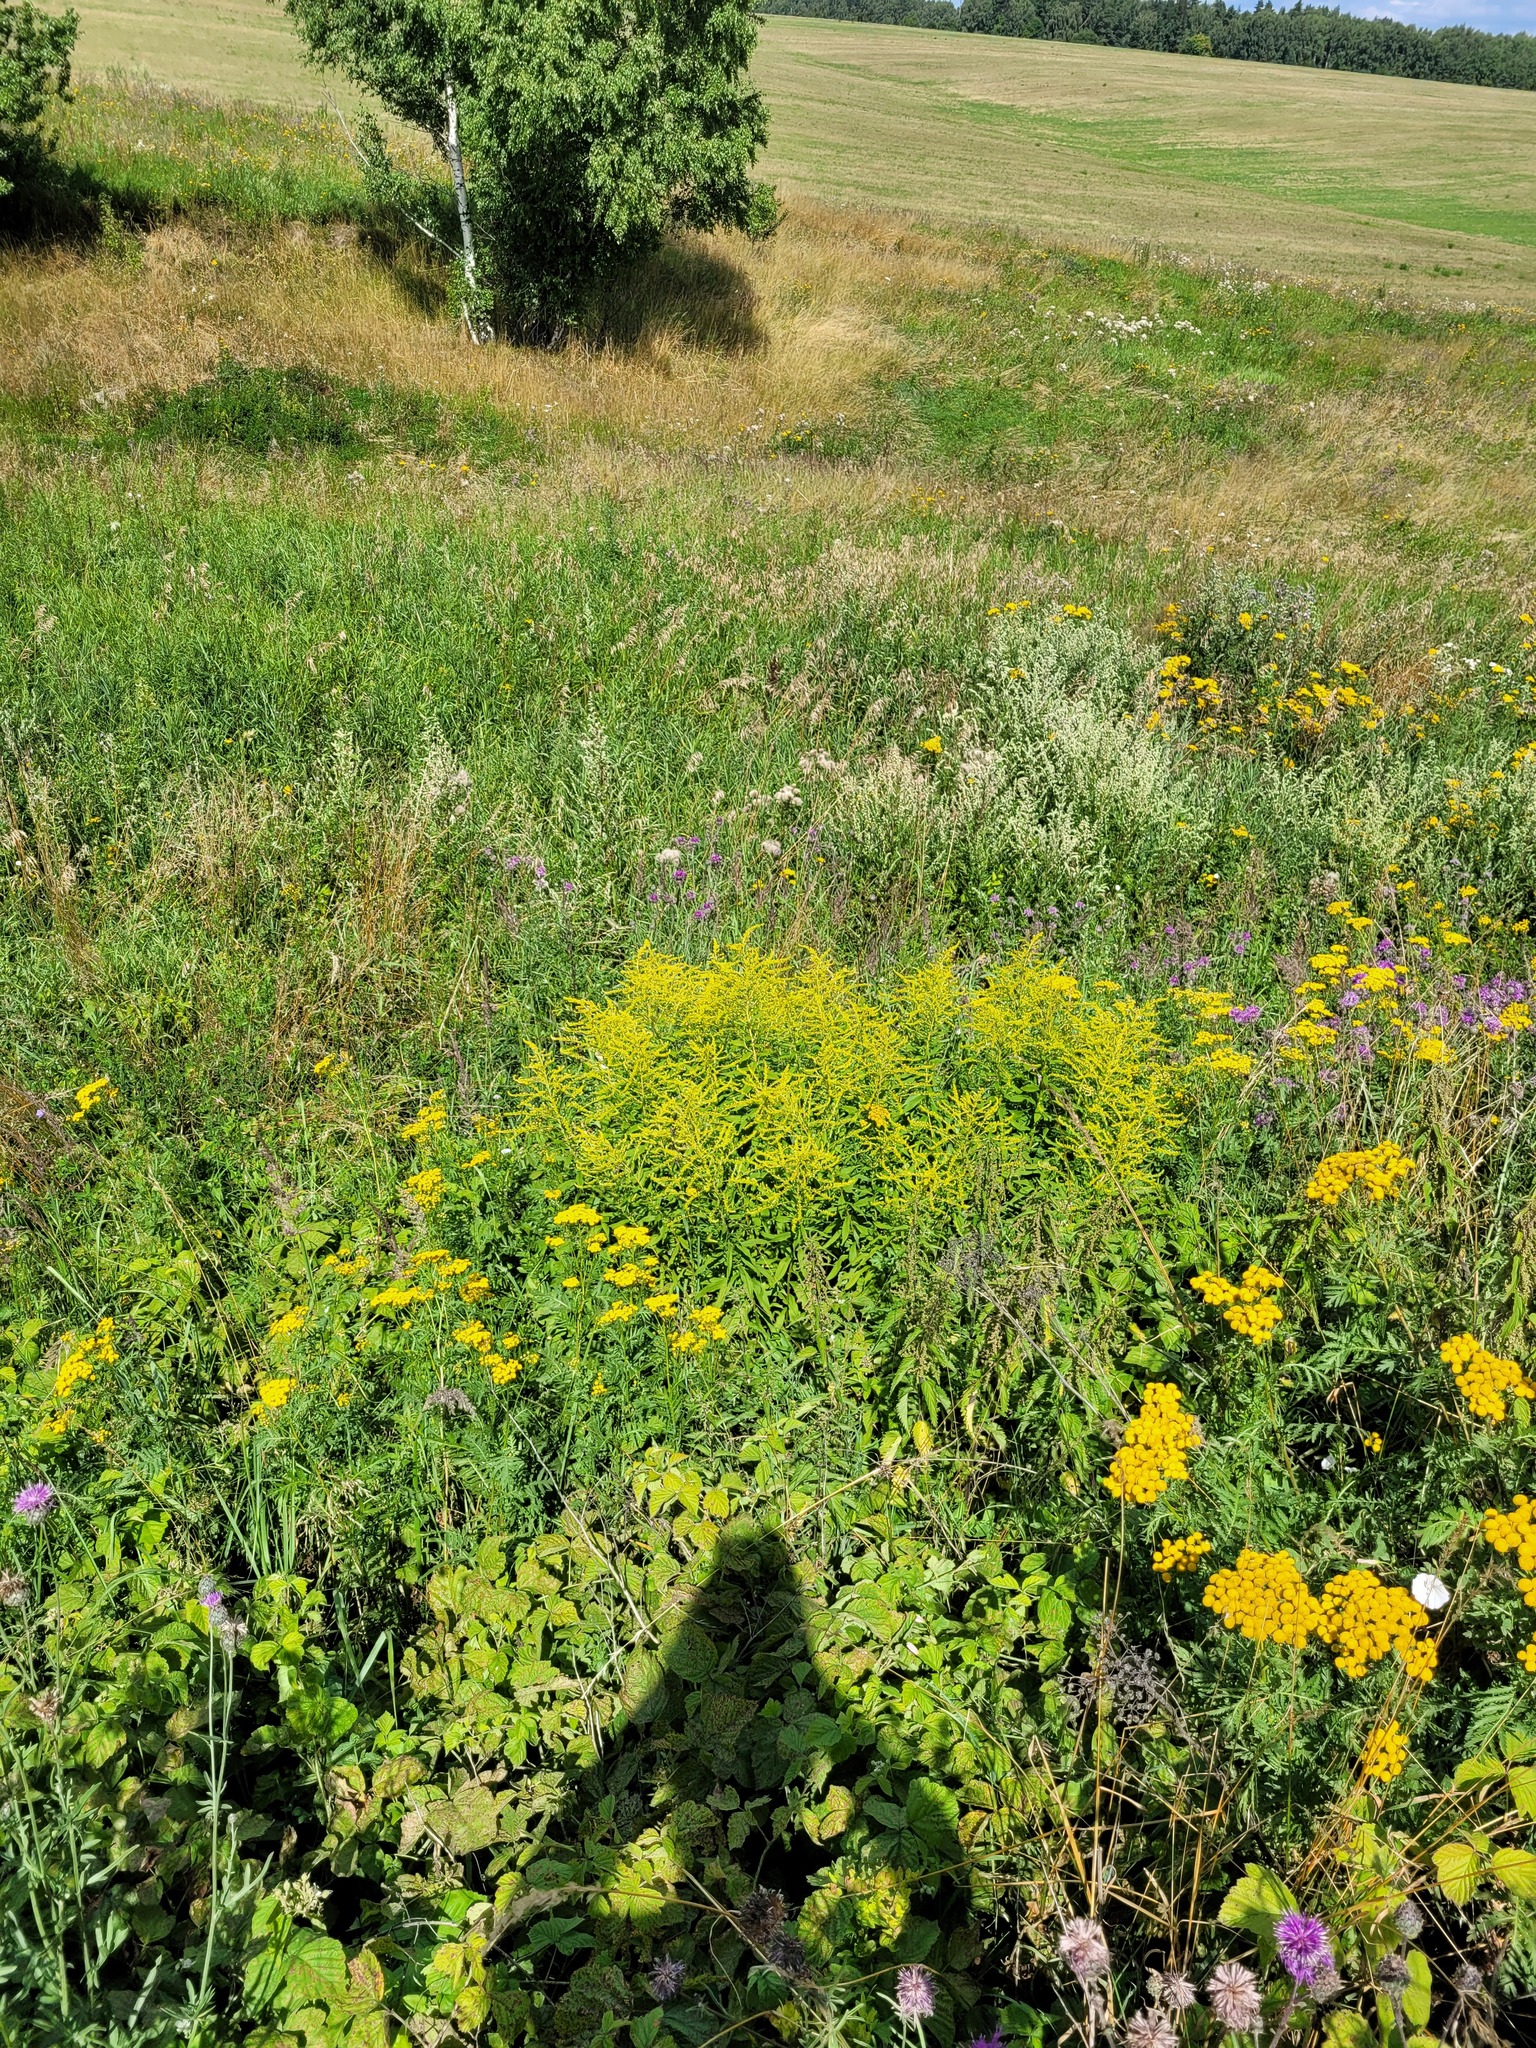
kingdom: Plantae
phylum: Tracheophyta
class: Magnoliopsida
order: Asterales
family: Asteraceae
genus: Solidago
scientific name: Solidago canadensis
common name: Canada goldenrod
